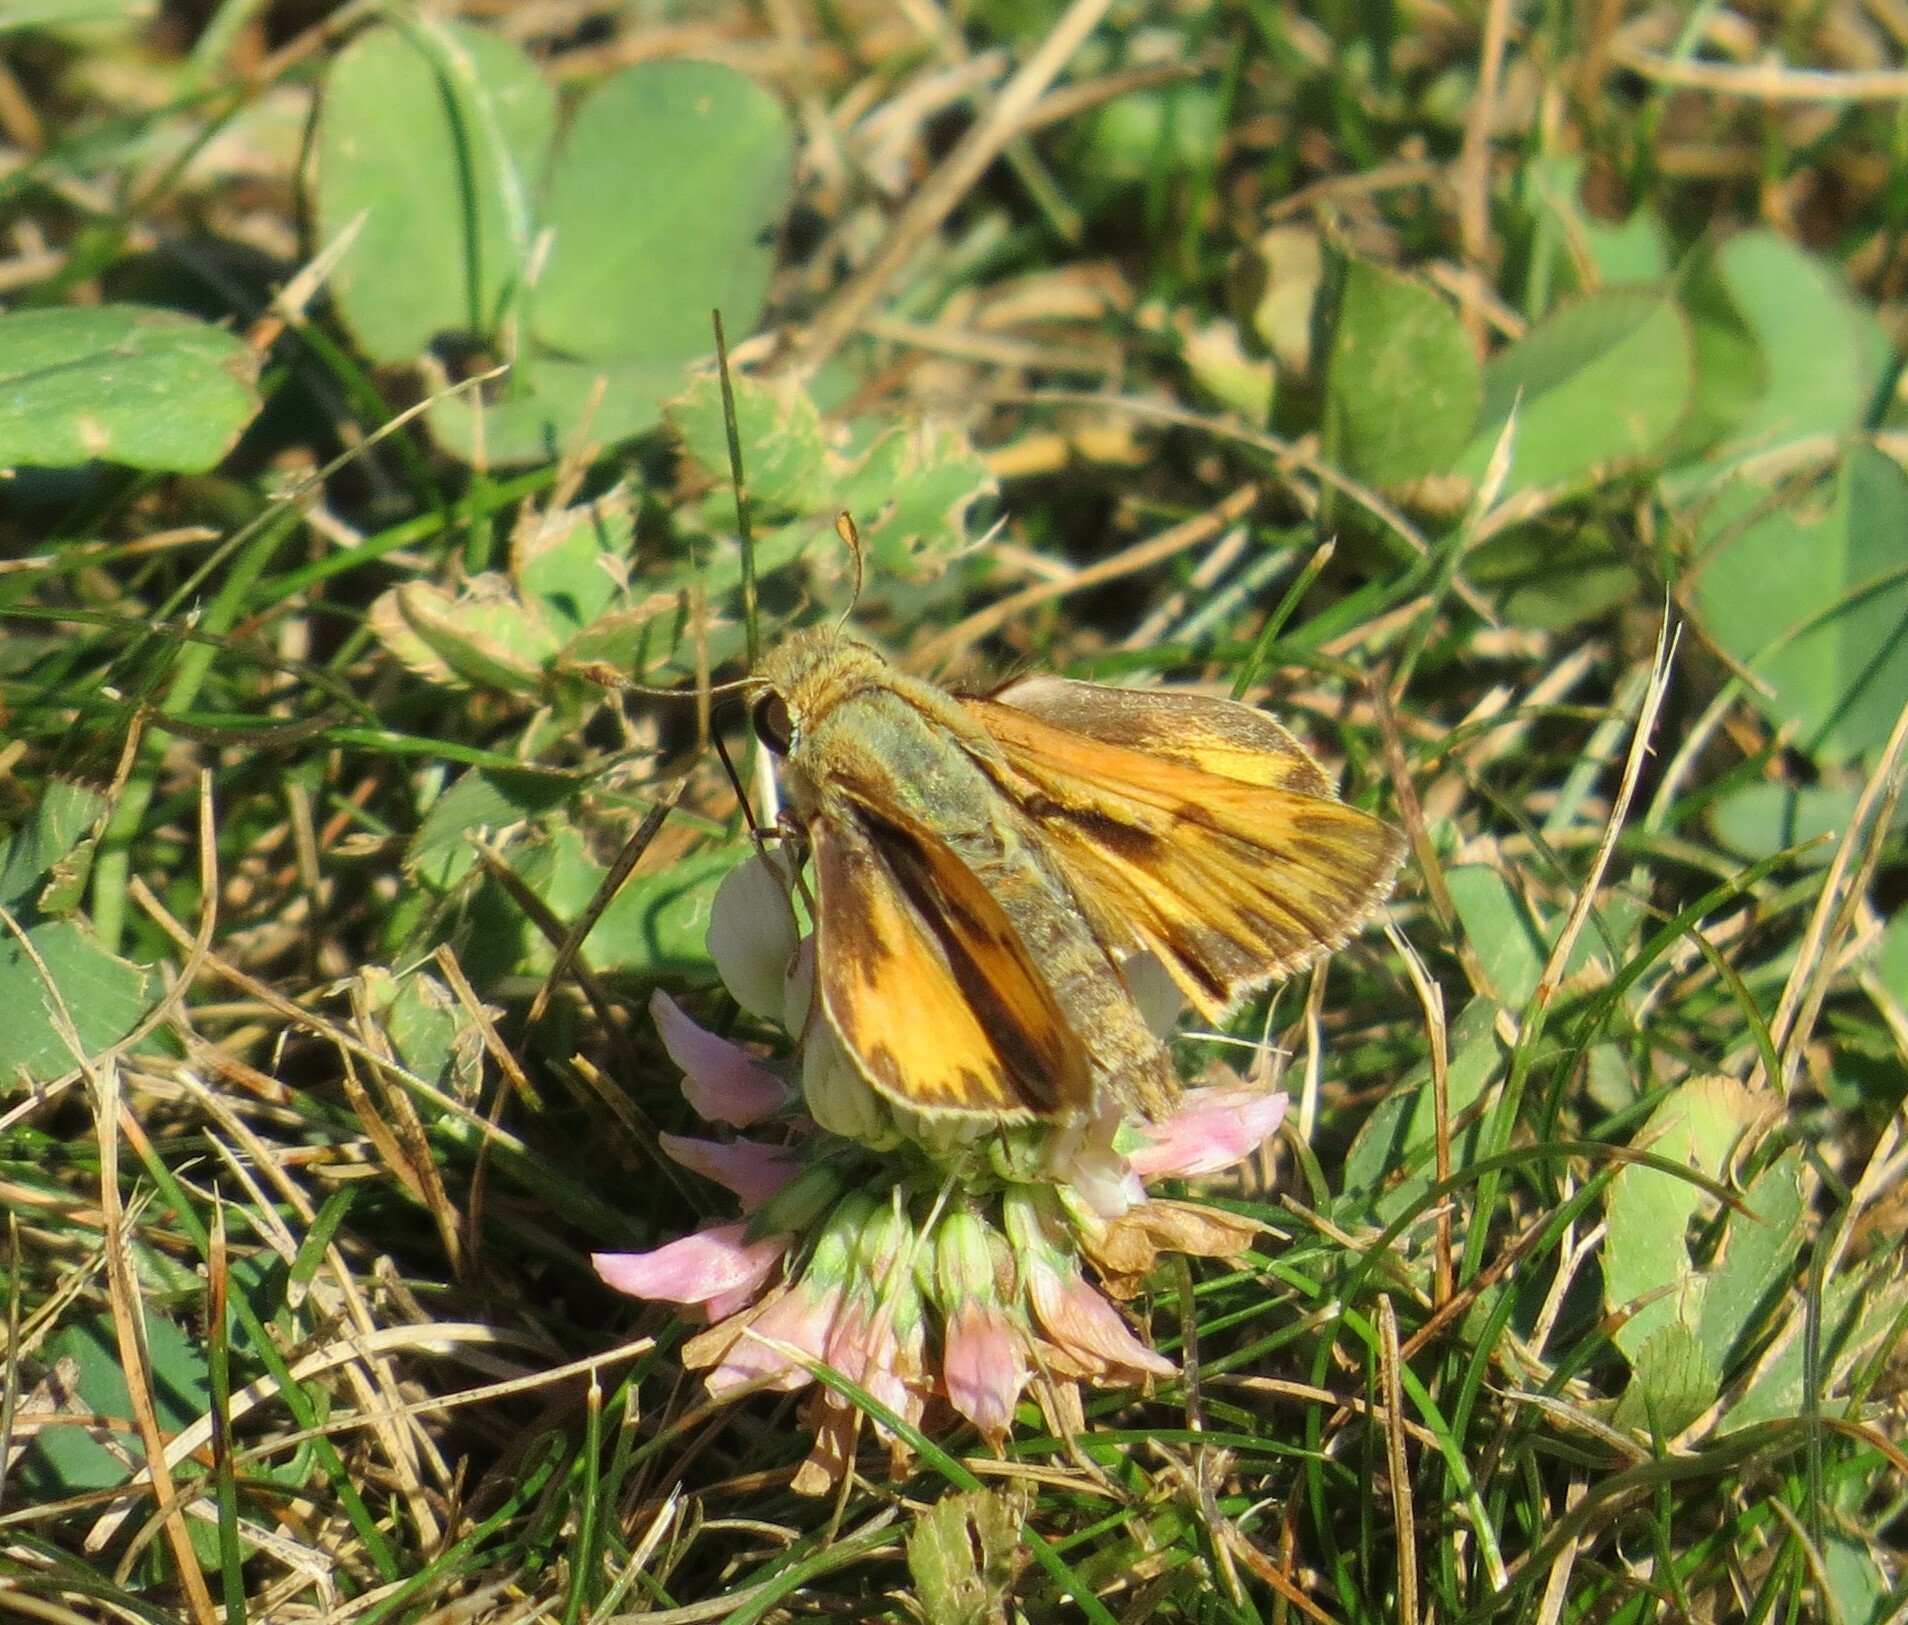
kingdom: Animalia
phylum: Arthropoda
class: Insecta
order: Lepidoptera
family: Hesperiidae
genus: Hylephila
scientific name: Hylephila phyleus
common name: Fiery skipper
